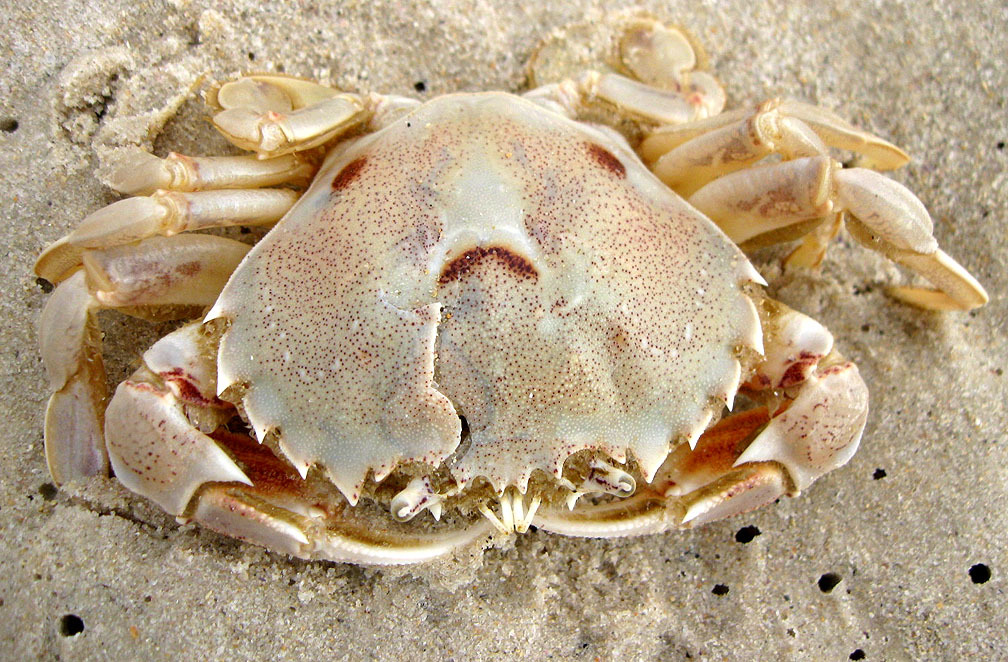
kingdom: Animalia
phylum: Arthropoda
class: Malacostraca
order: Decapoda
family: Ovalipidae
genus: Ovalipes
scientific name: Ovalipes trimaculatus
